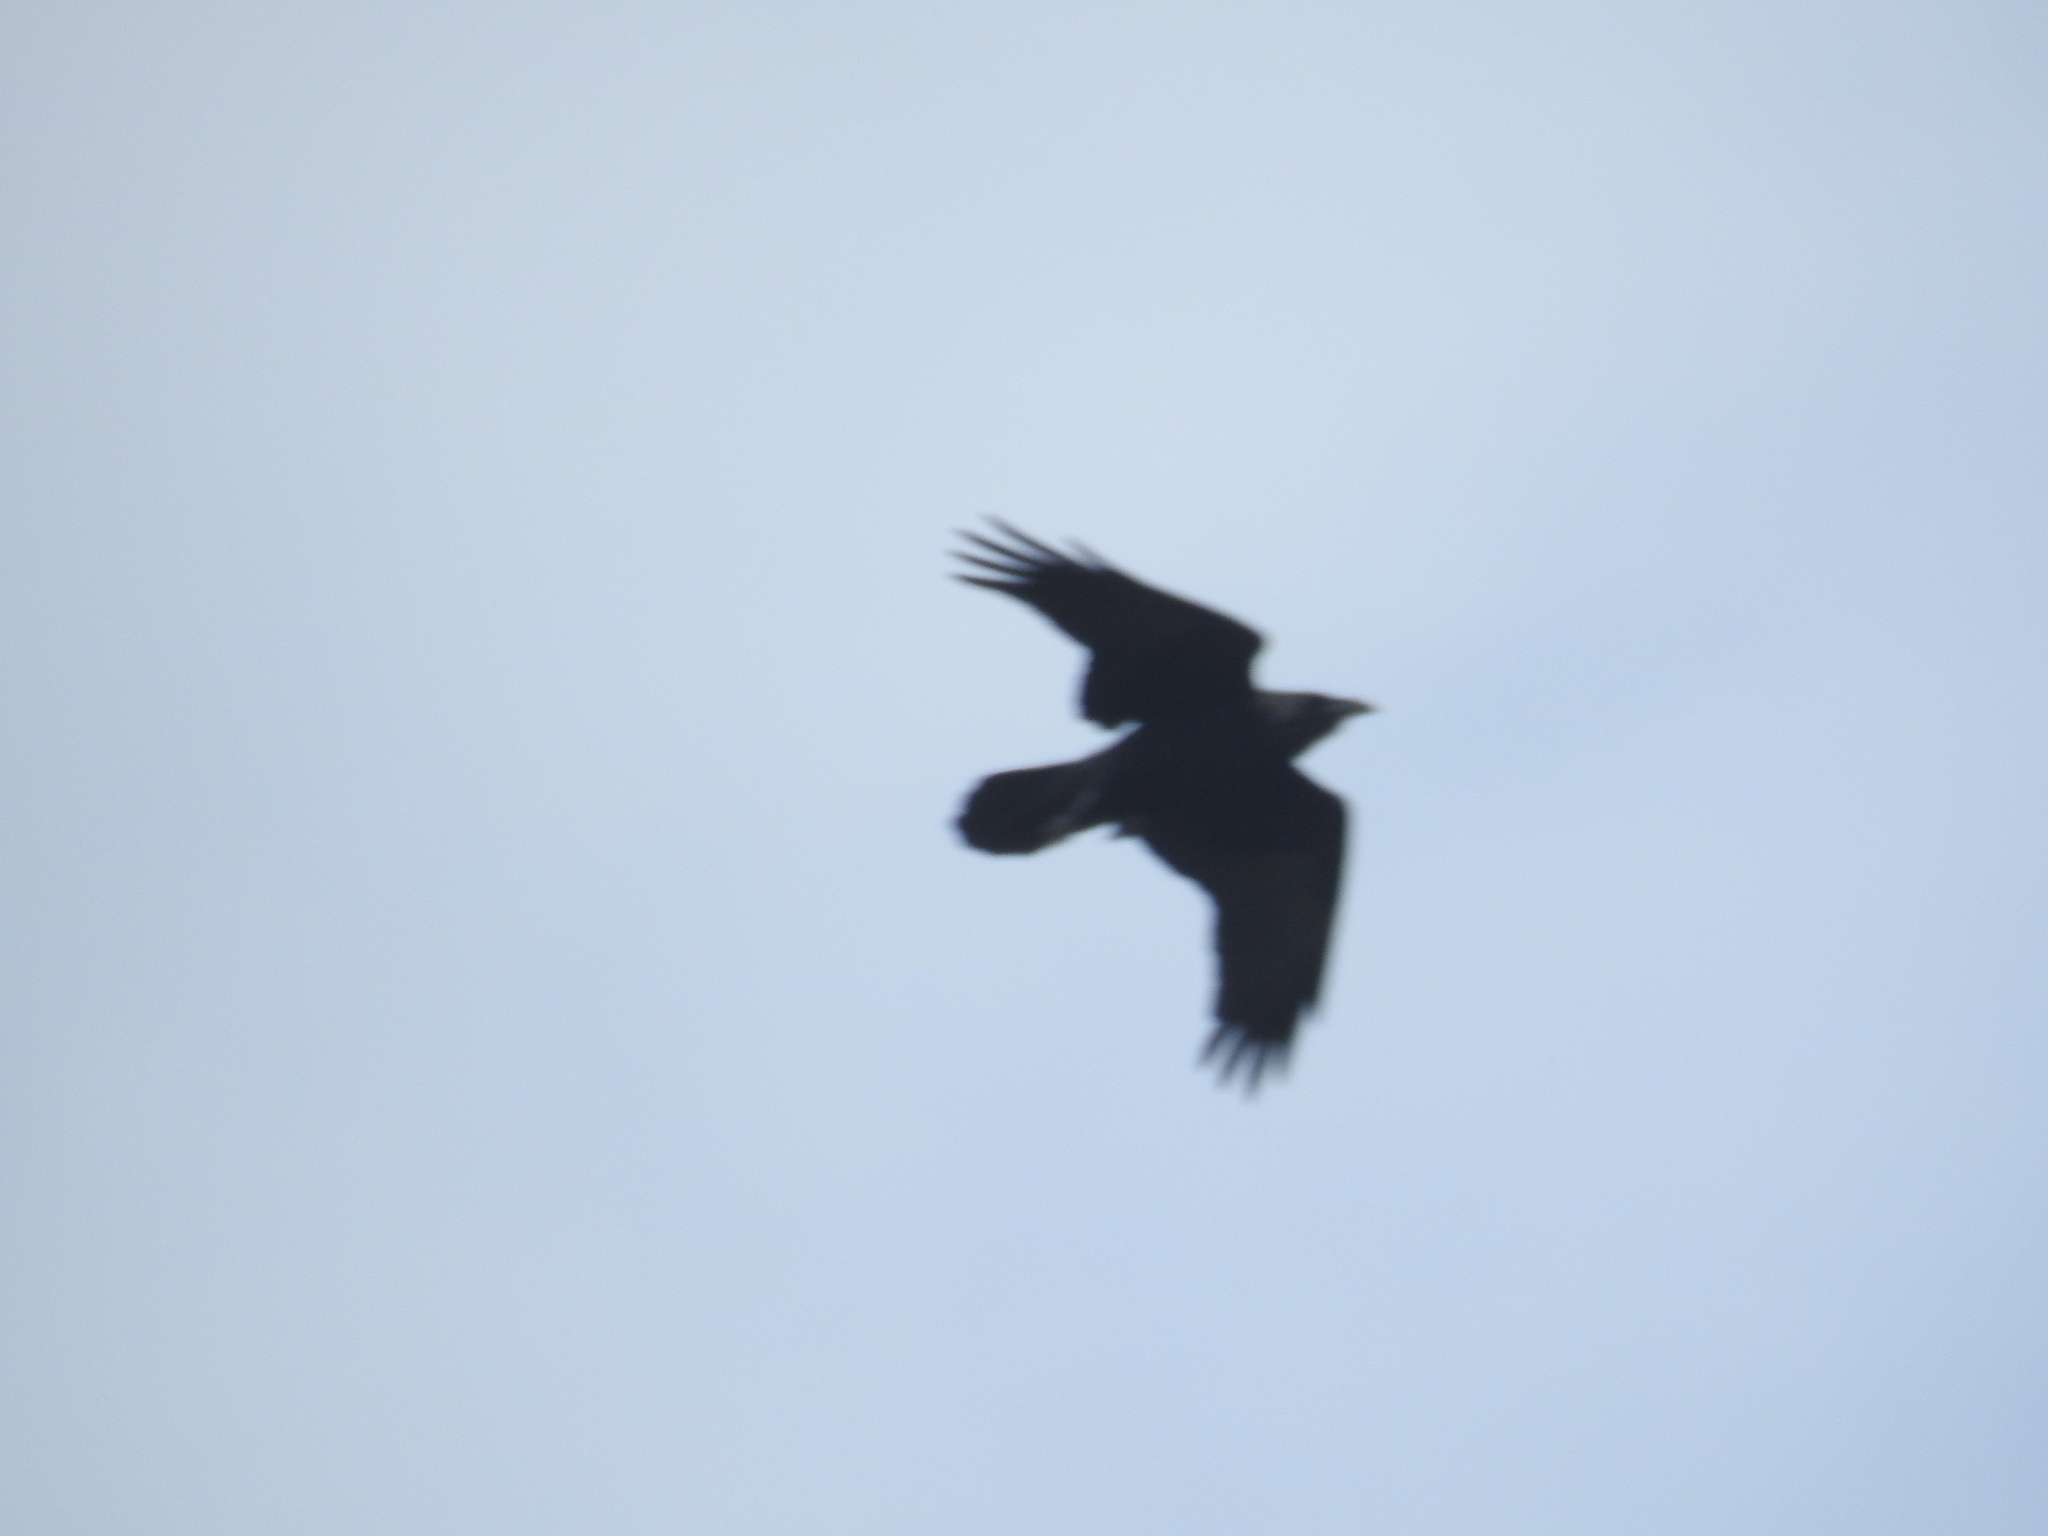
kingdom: Animalia
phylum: Chordata
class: Aves
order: Passeriformes
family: Corvidae
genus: Corvus
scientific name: Corvus corax
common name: Common raven
